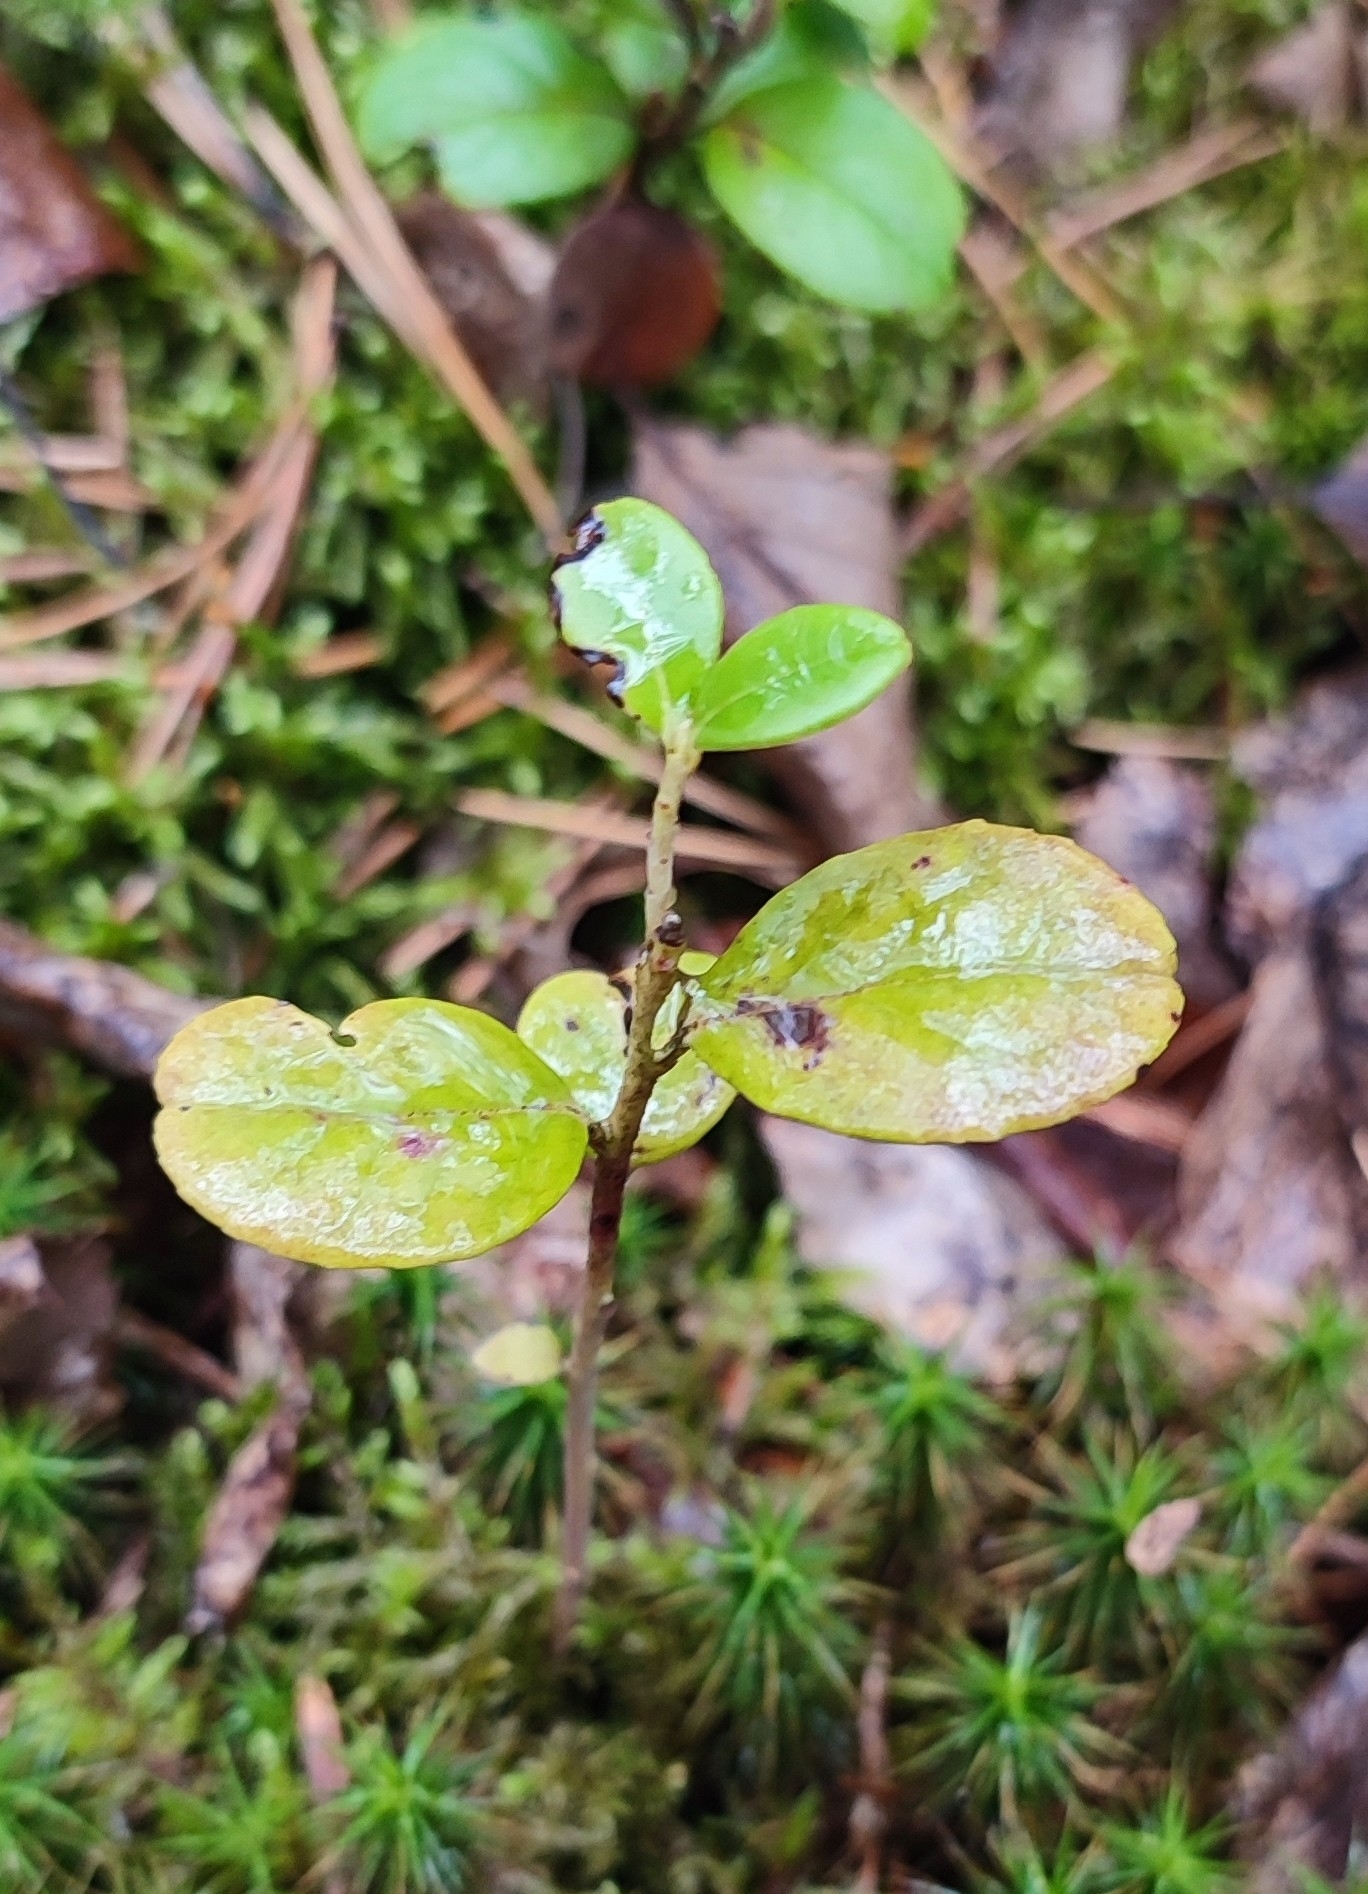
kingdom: Plantae
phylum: Tracheophyta
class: Magnoliopsida
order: Ericales
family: Ericaceae
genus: Vaccinium
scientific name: Vaccinium vitis-idaea
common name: Cowberry
